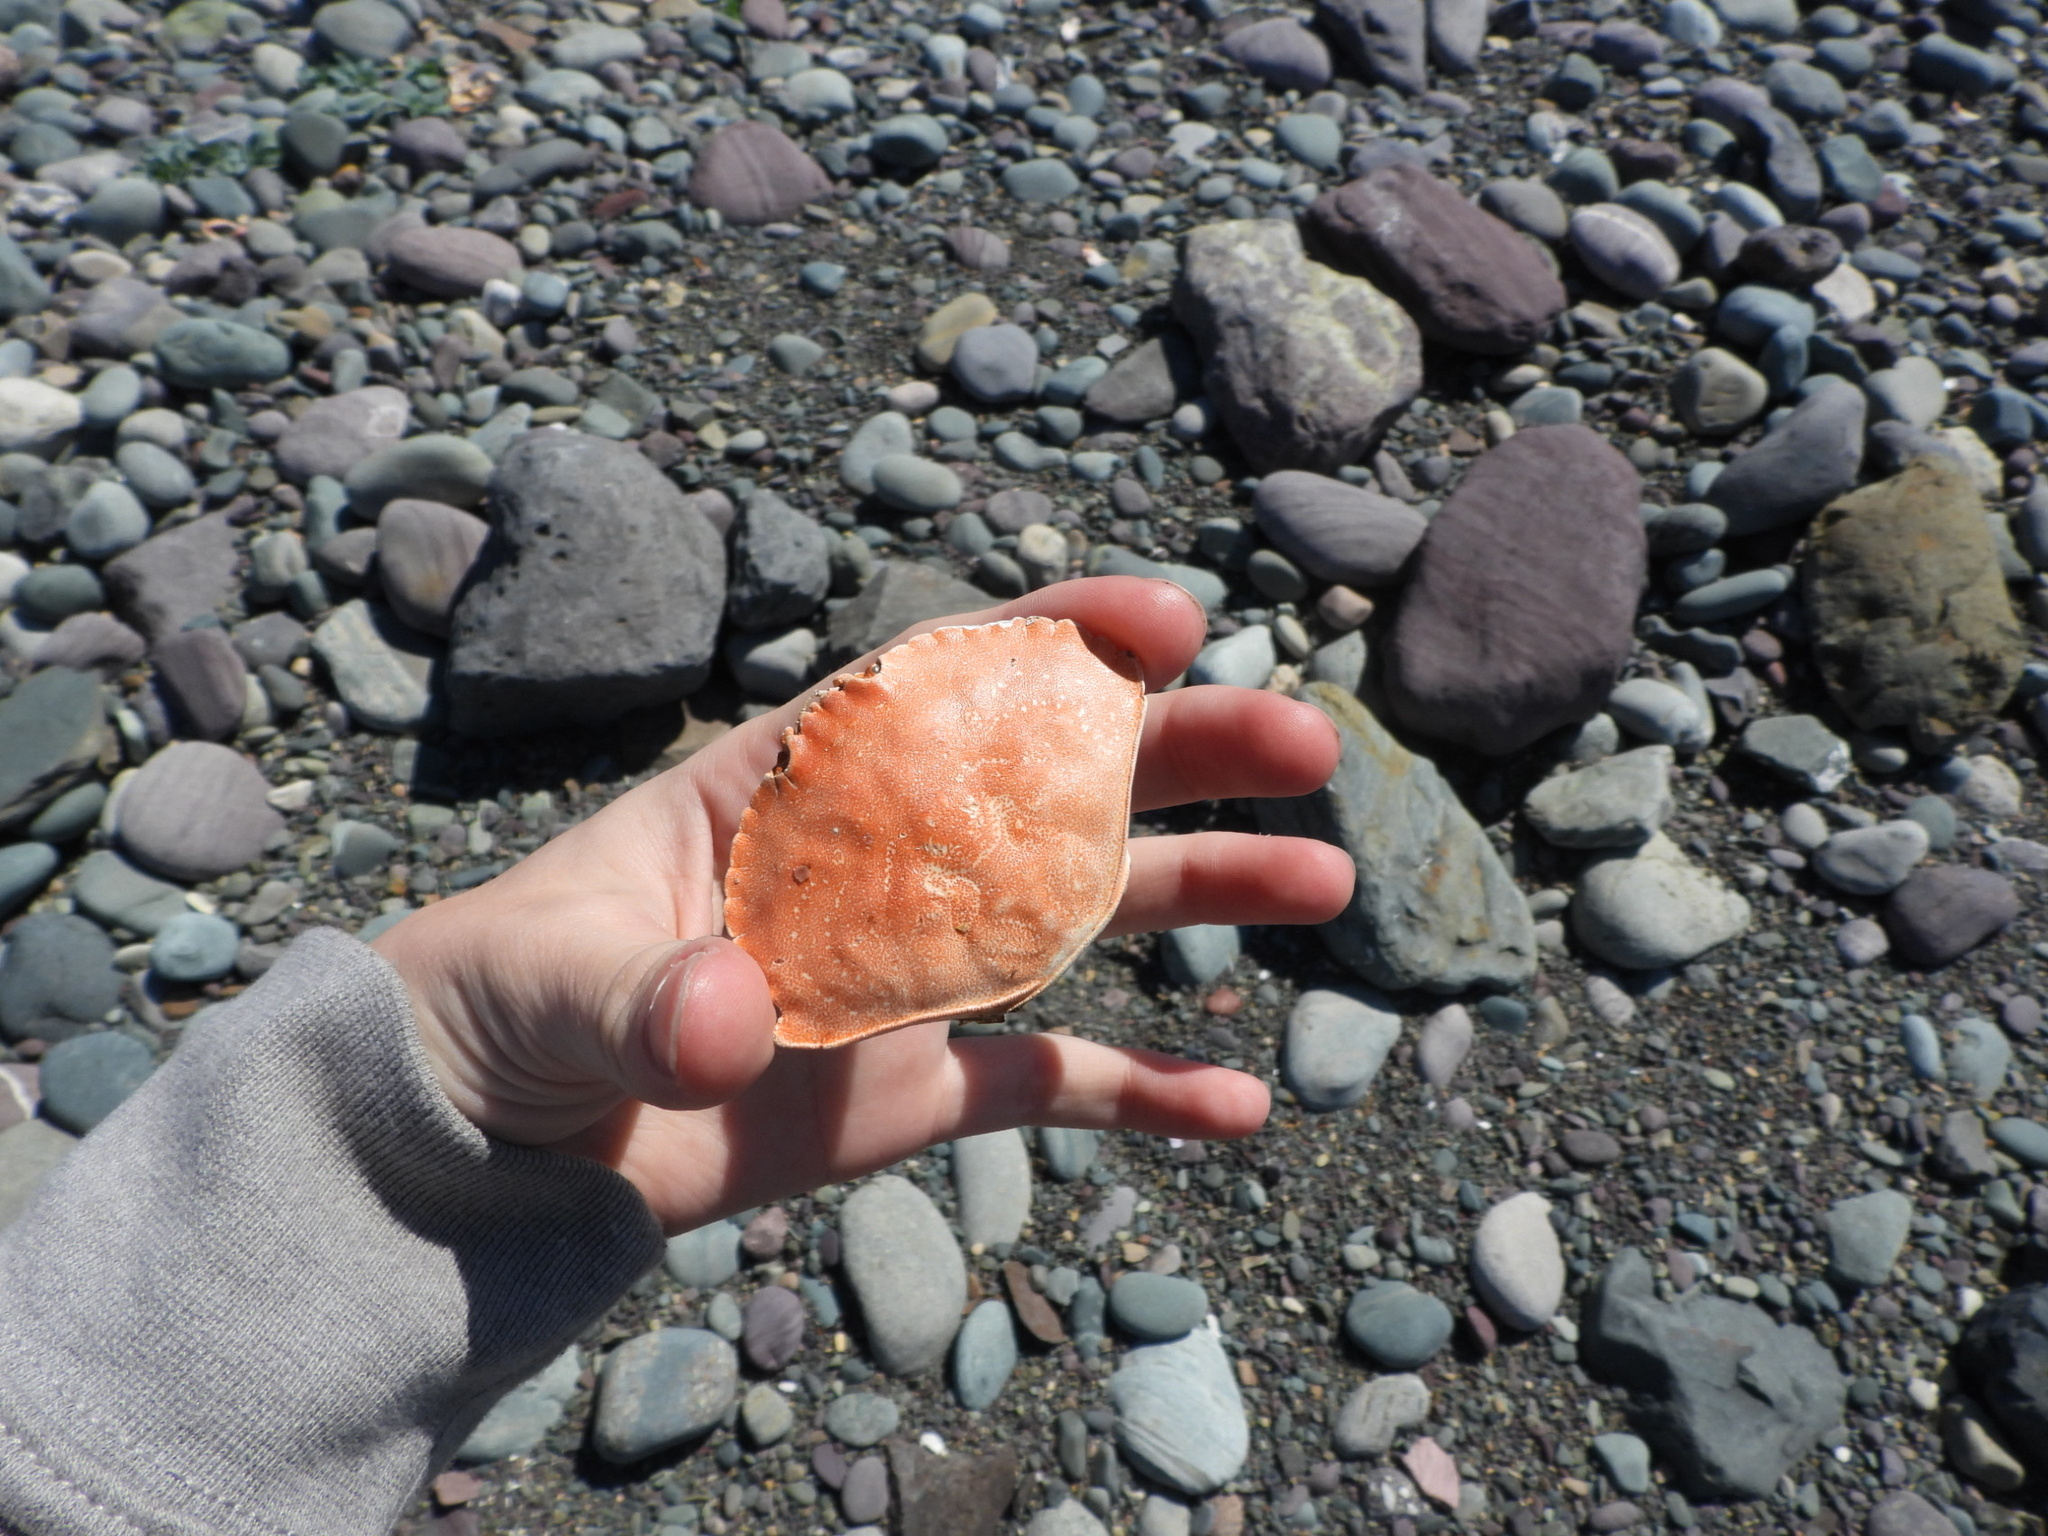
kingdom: Animalia
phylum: Arthropoda
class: Malacostraca
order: Decapoda
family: Cancridae
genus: Cancer
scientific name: Cancer irroratus
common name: Atlantic rock crab
